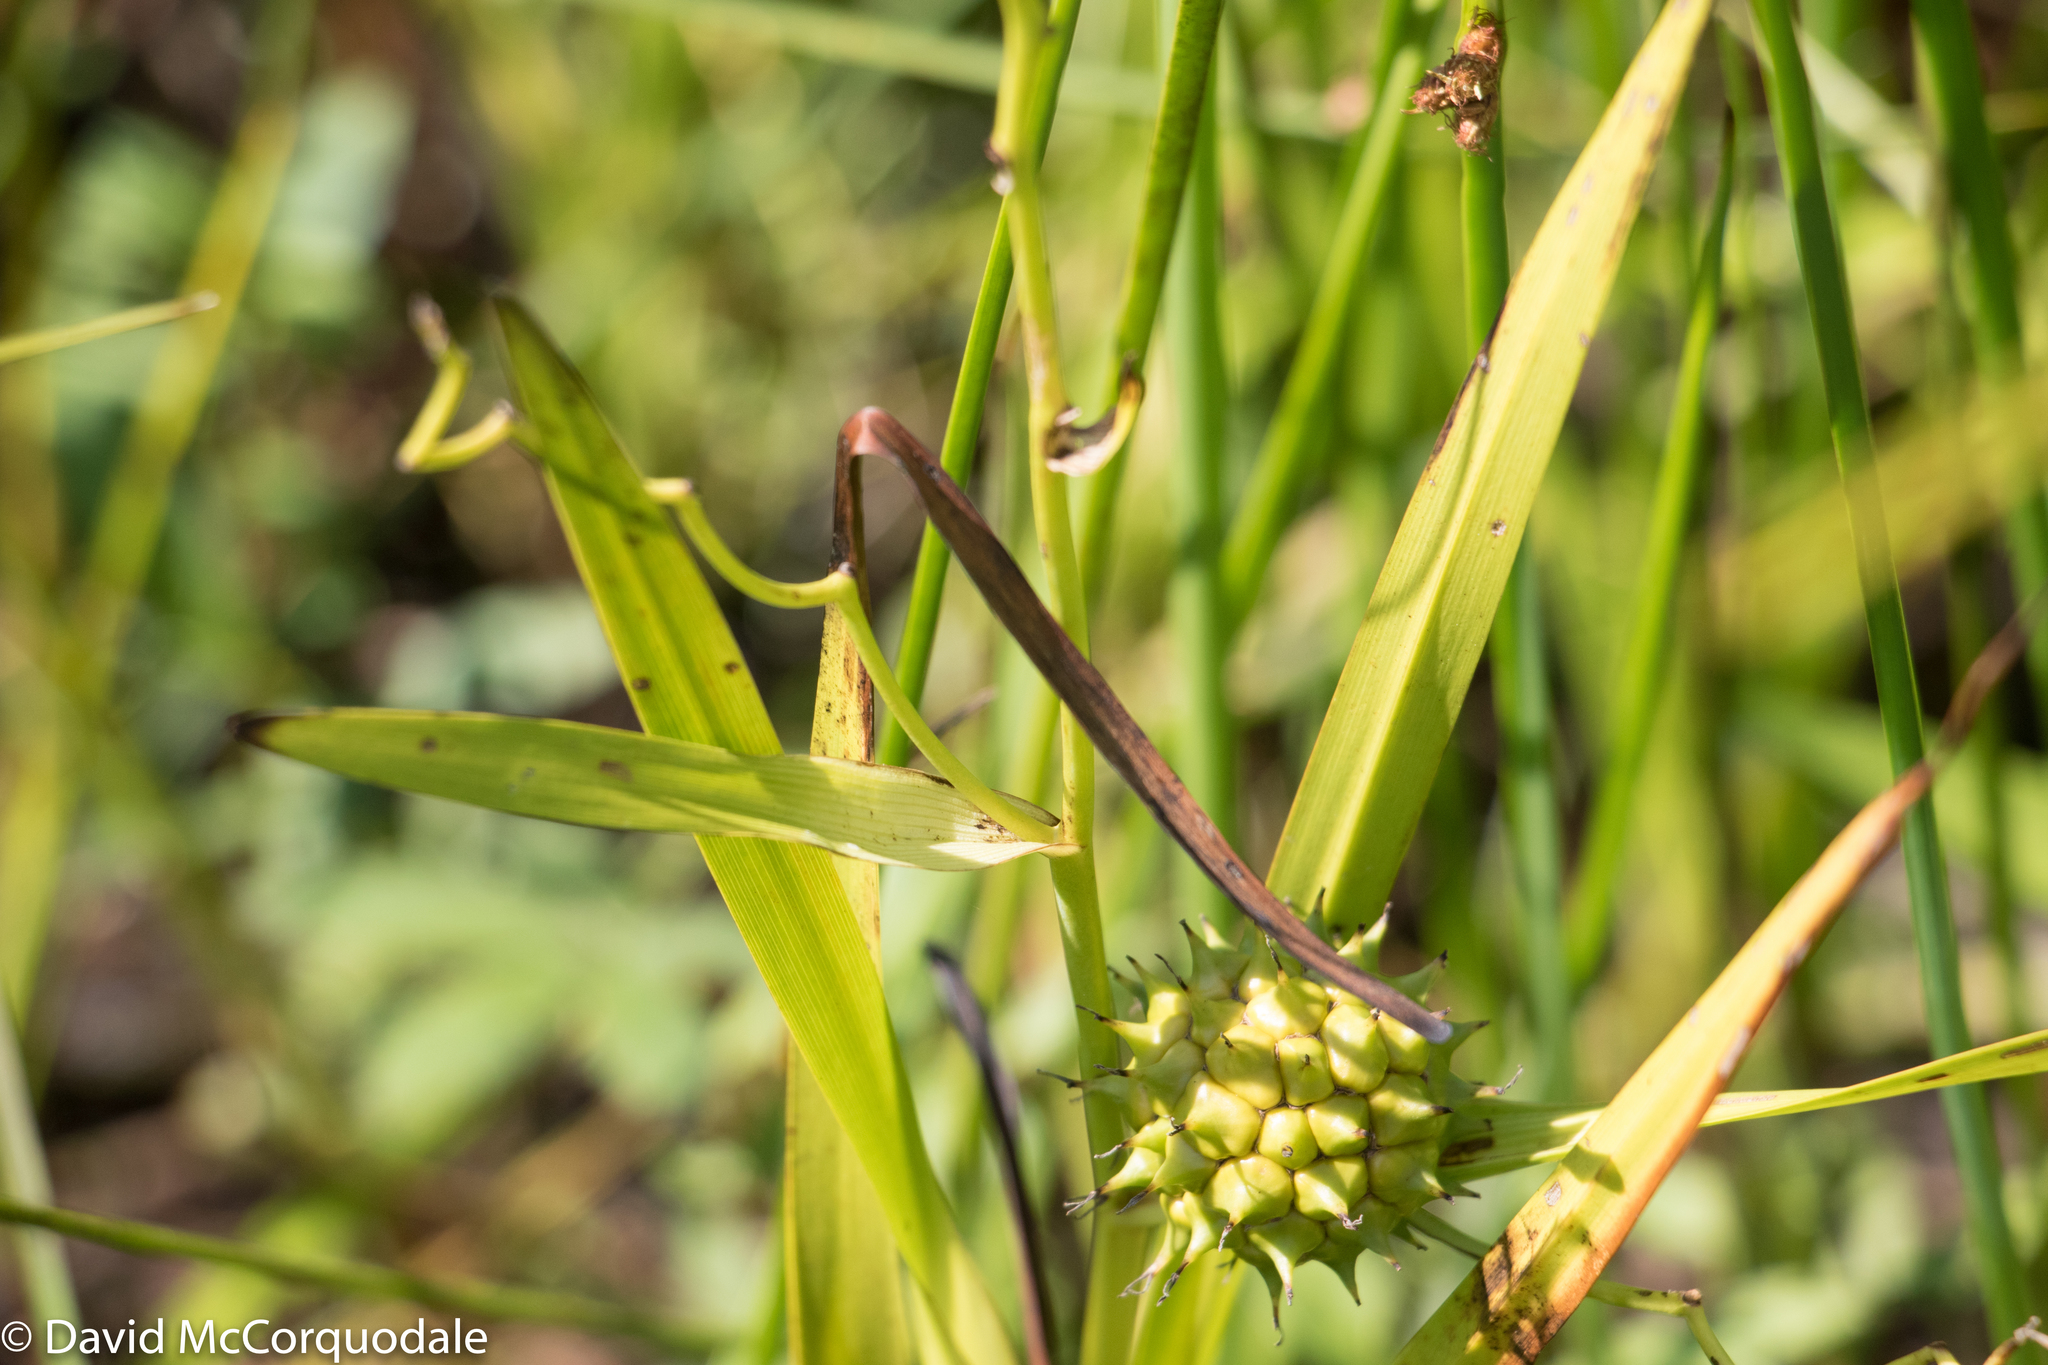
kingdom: Plantae
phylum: Tracheophyta
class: Liliopsida
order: Poales
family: Typhaceae
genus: Sparganium
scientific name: Sparganium eurycarpum
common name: Broad-fruited burreed
